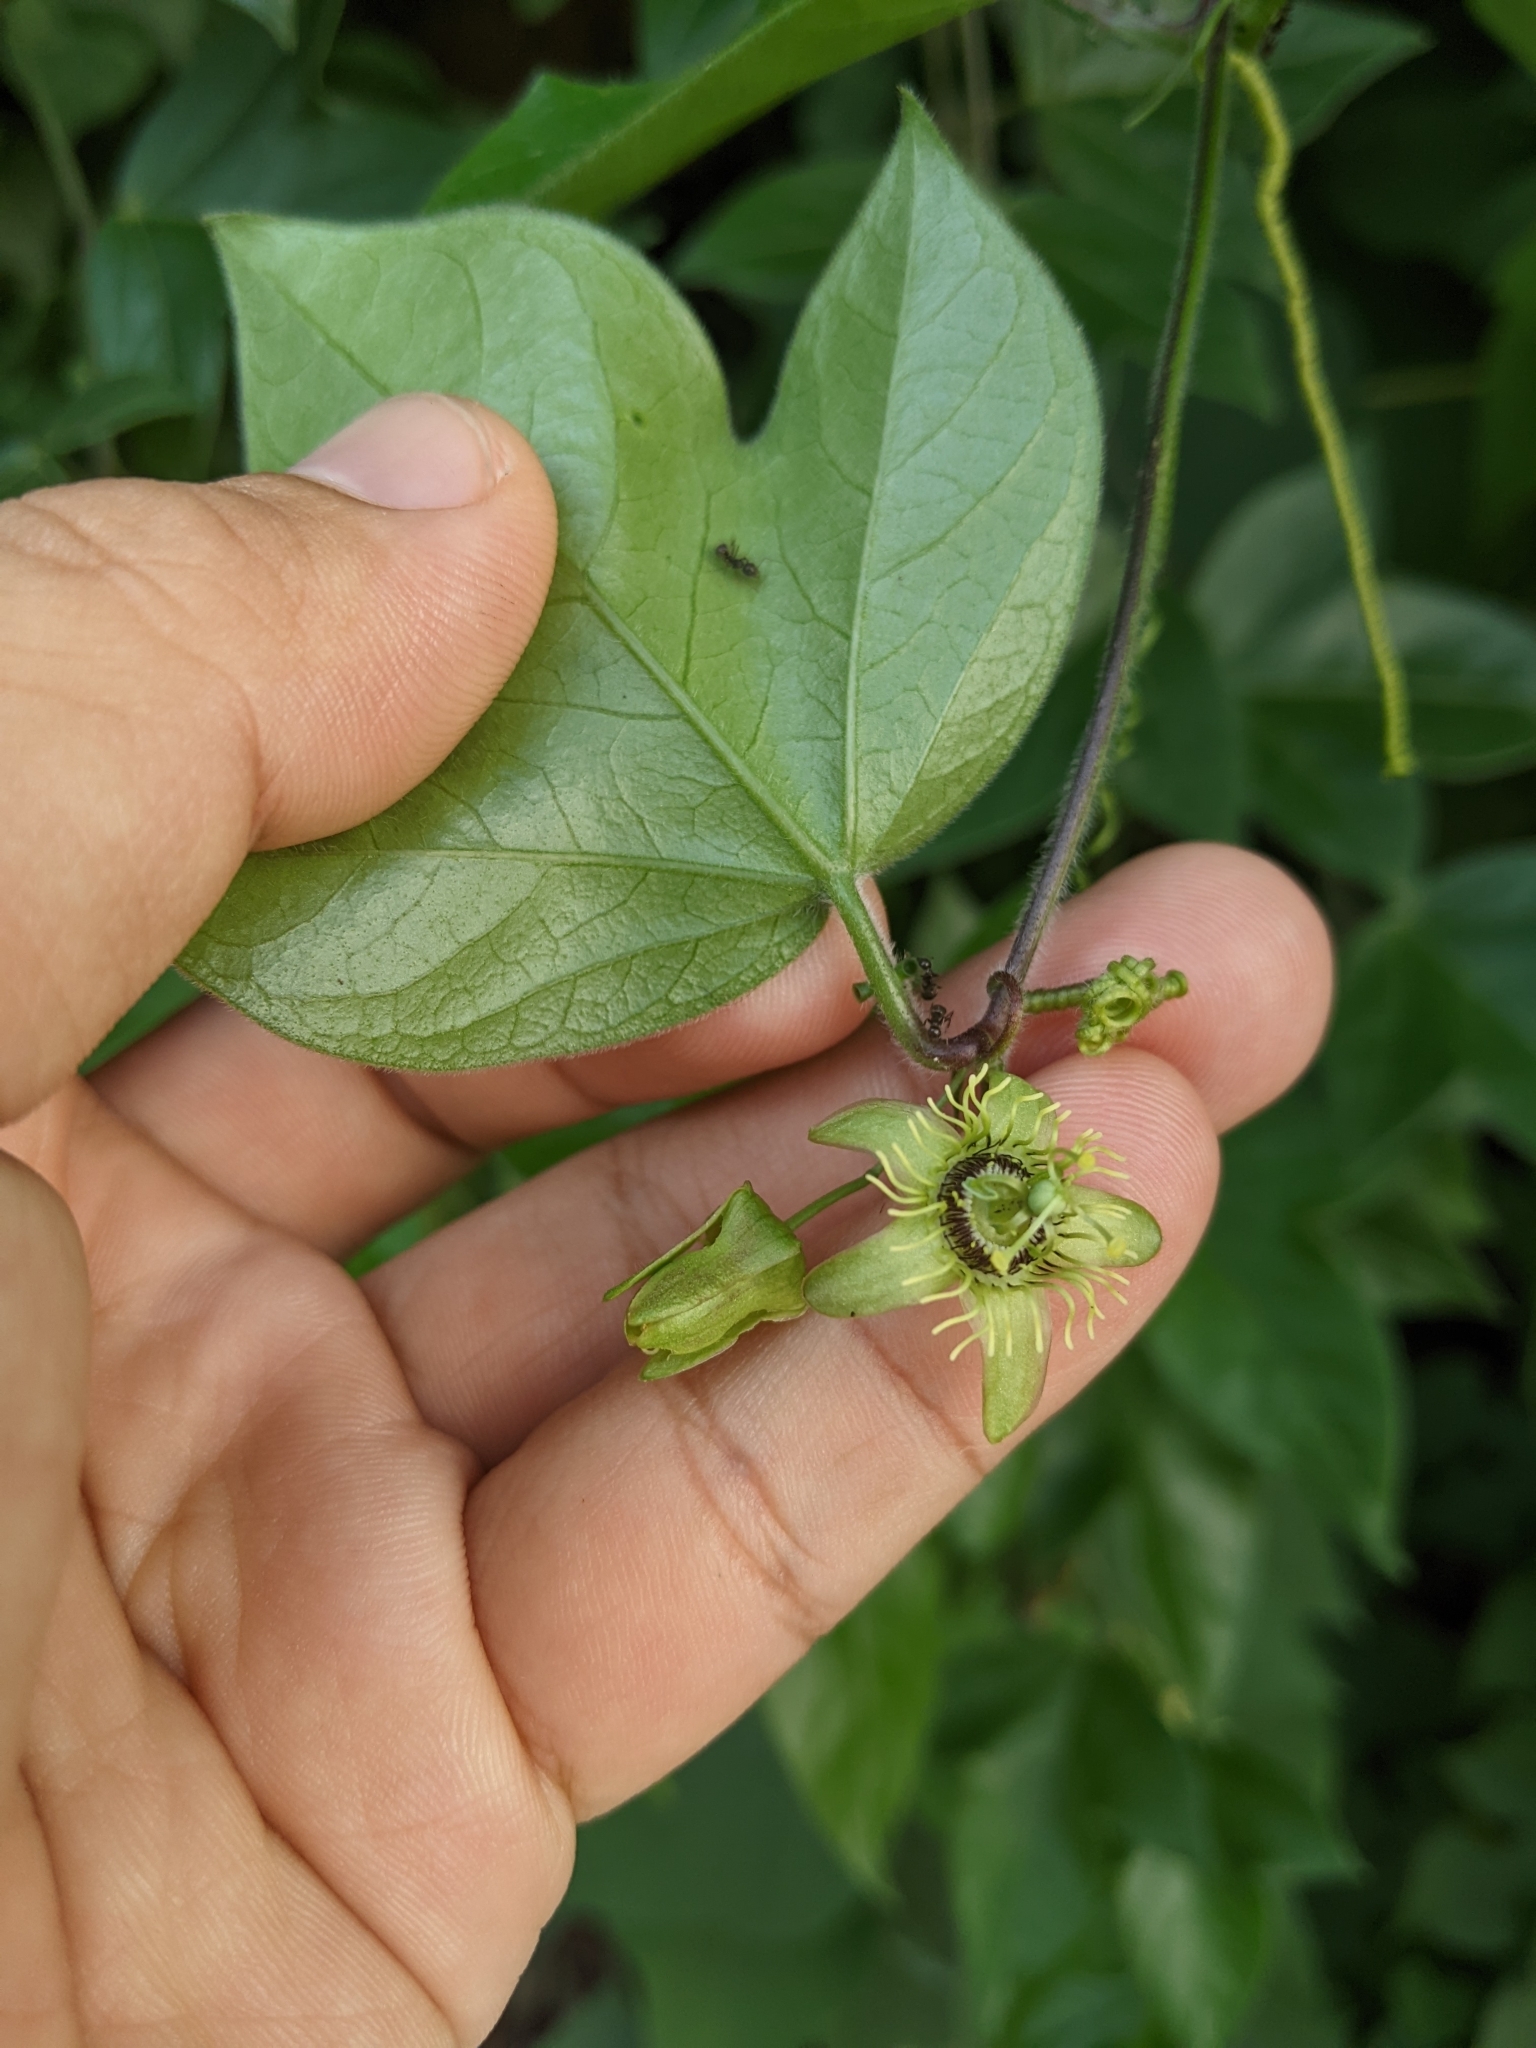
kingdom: Plantae
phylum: Tracheophyta
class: Magnoliopsida
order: Malpighiales
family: Passifloraceae
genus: Passiflora
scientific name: Passiflora suberosa
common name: Wild passionfruit
